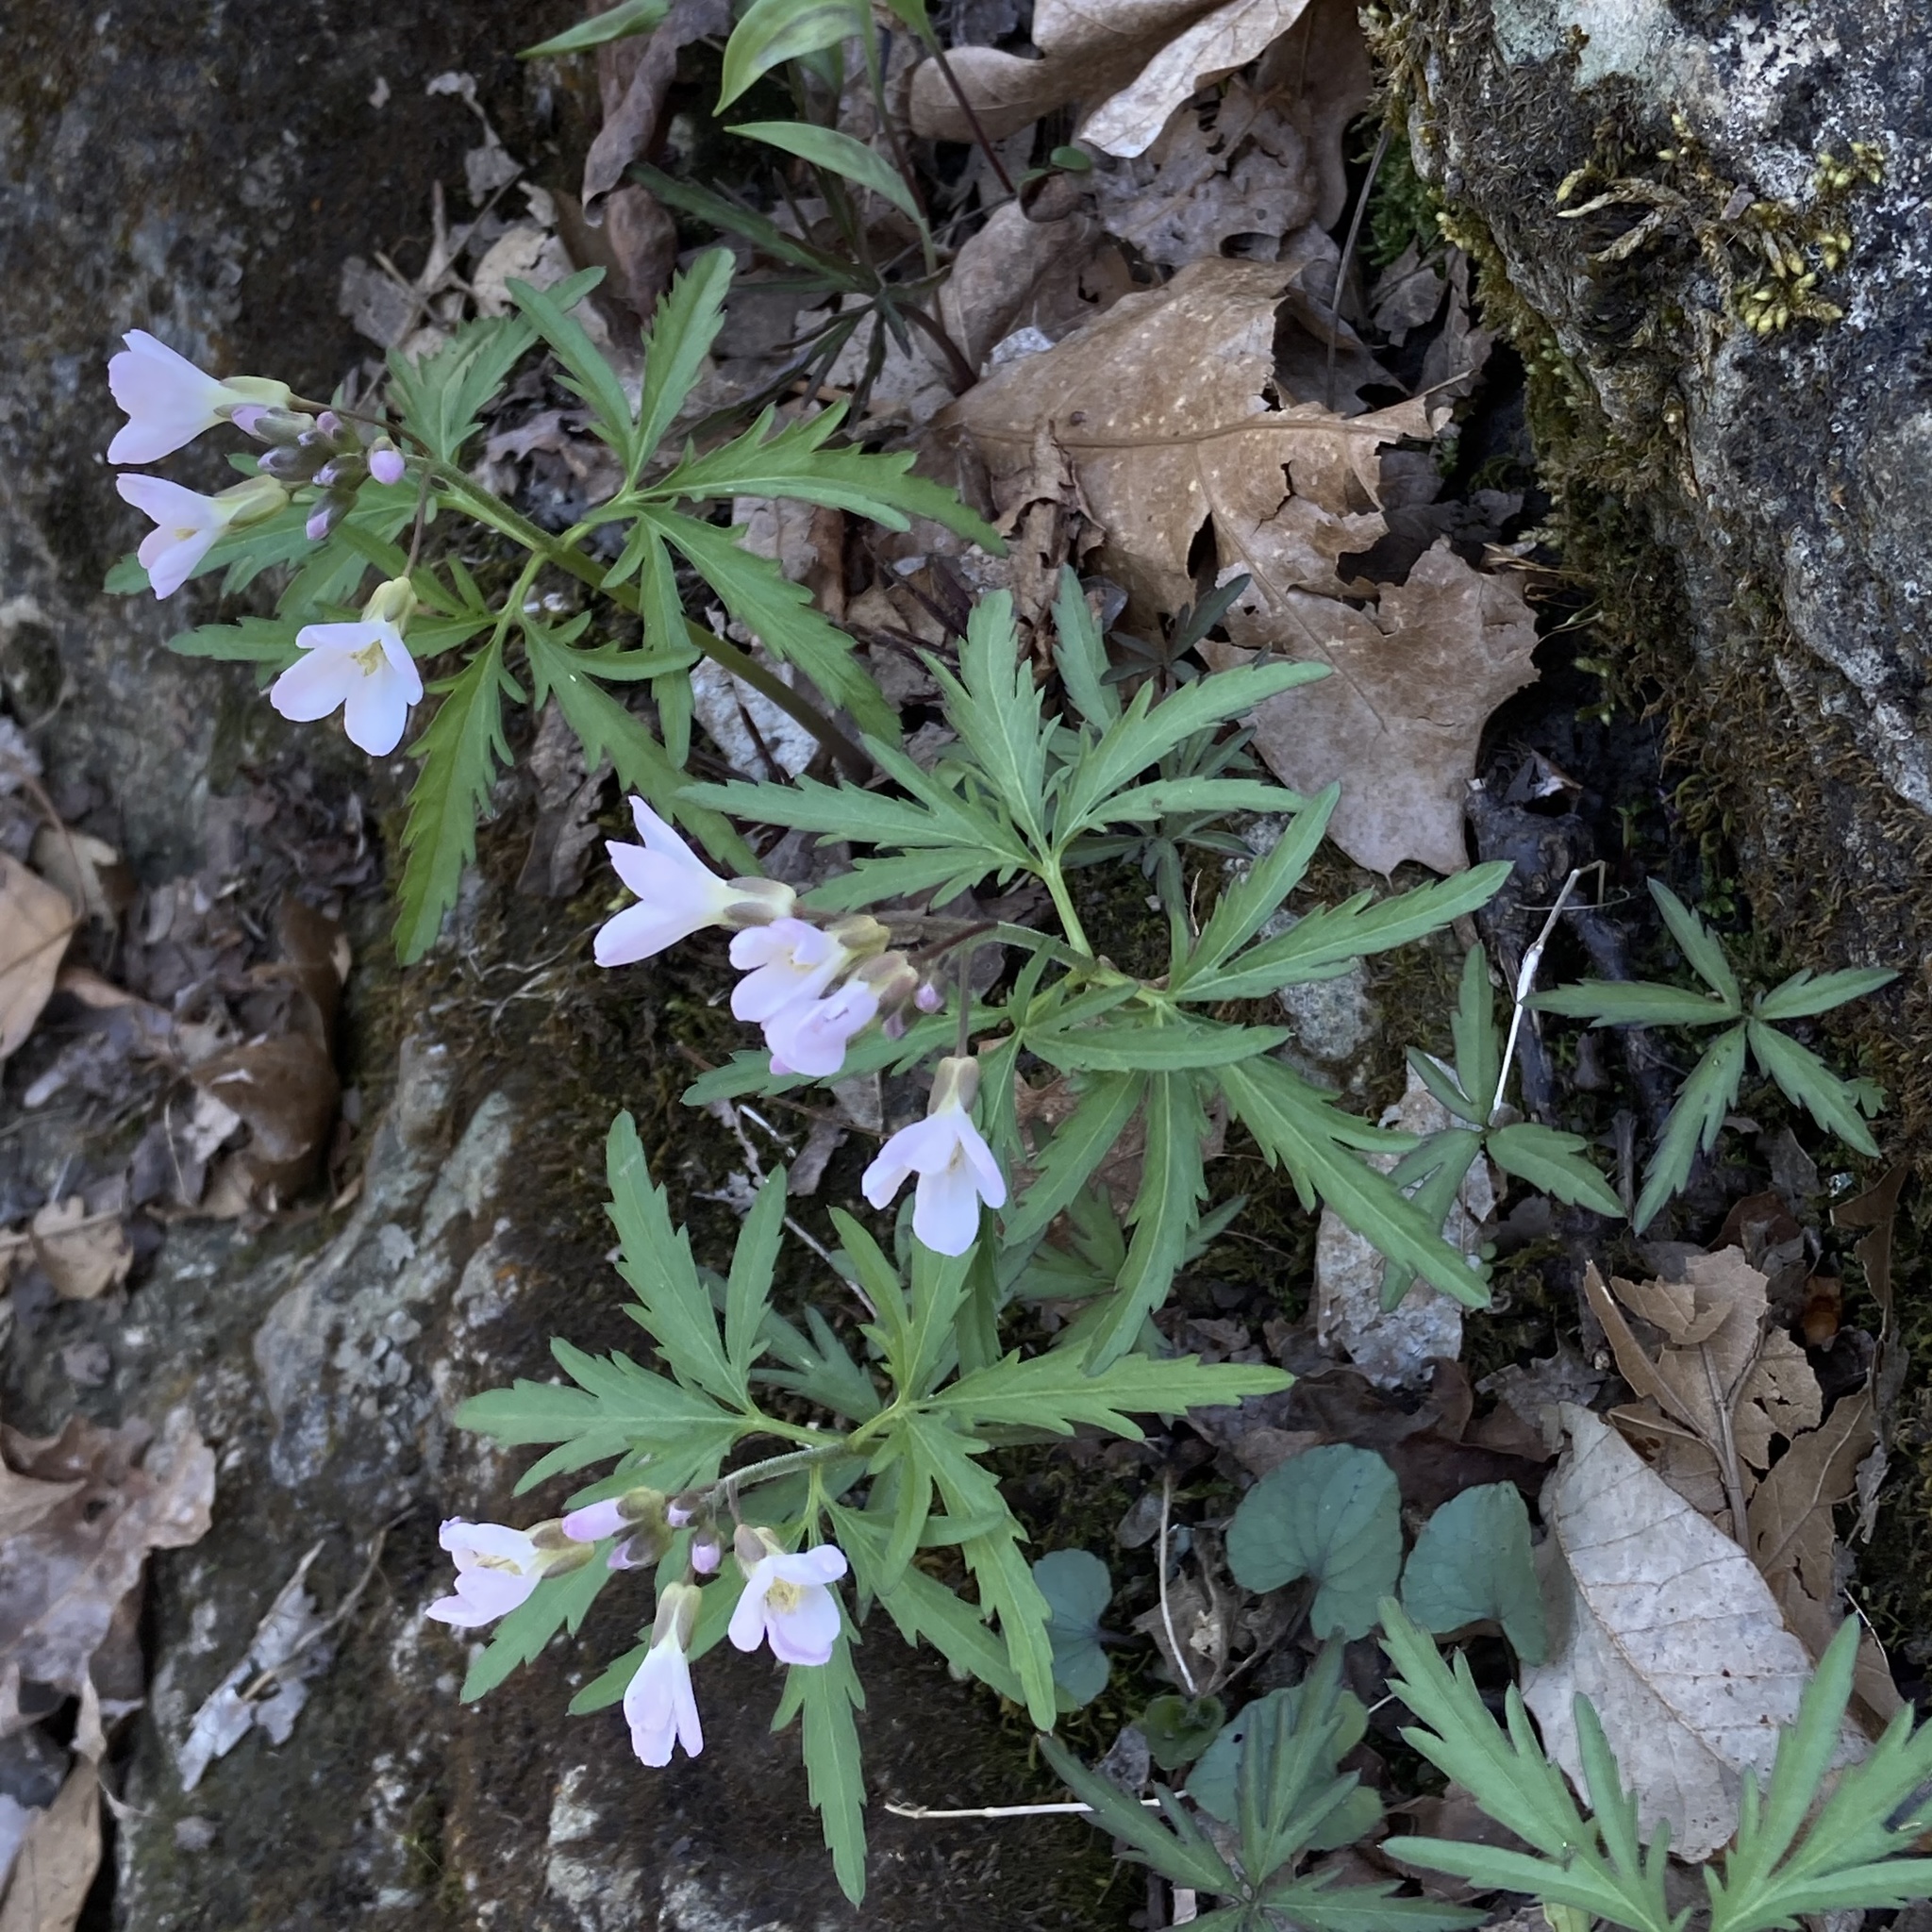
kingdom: Plantae
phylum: Tracheophyta
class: Magnoliopsida
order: Brassicales
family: Brassicaceae
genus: Cardamine
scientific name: Cardamine concatenata
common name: Cut-leaf toothcup
